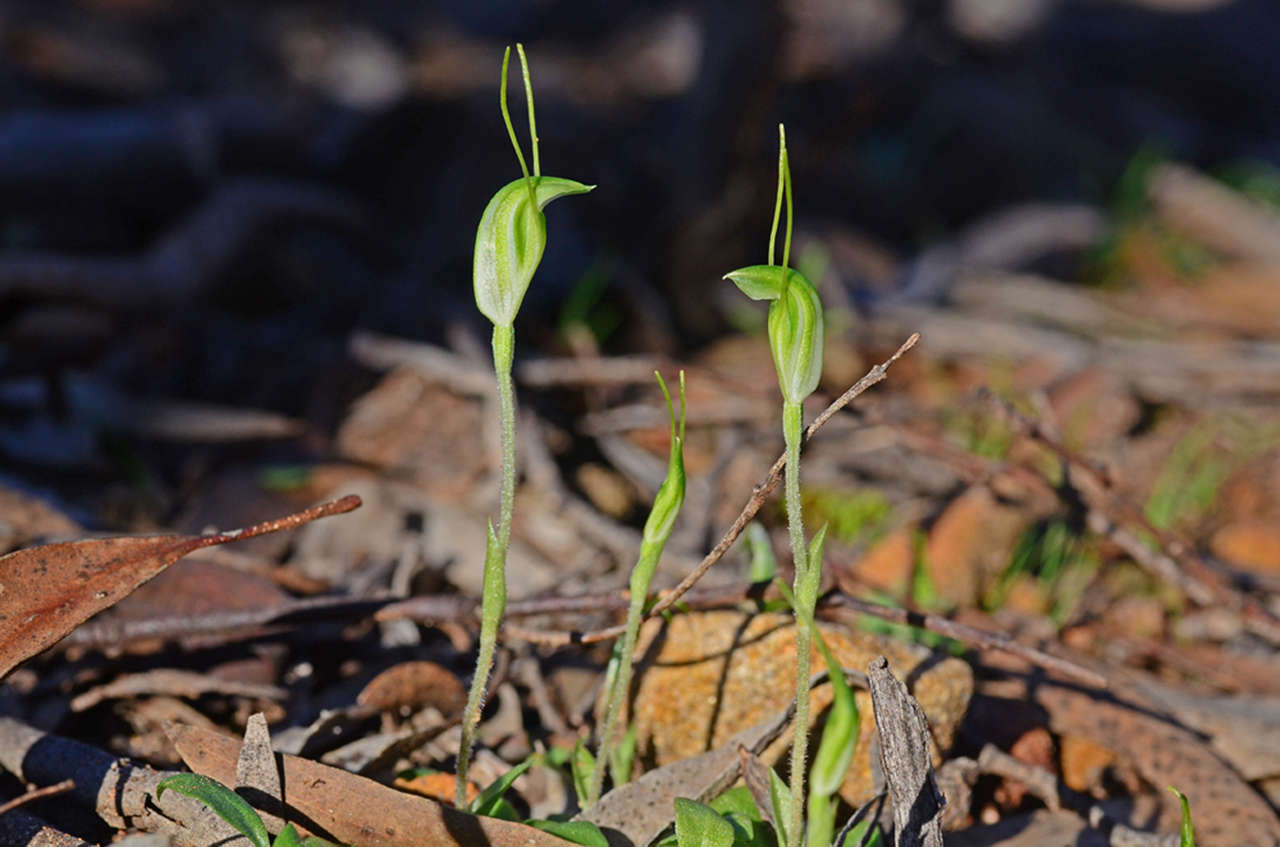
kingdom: Plantae
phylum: Tracheophyta
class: Liliopsida
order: Asparagales
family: Orchidaceae
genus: Pterostylis
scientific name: Pterostylis nana
